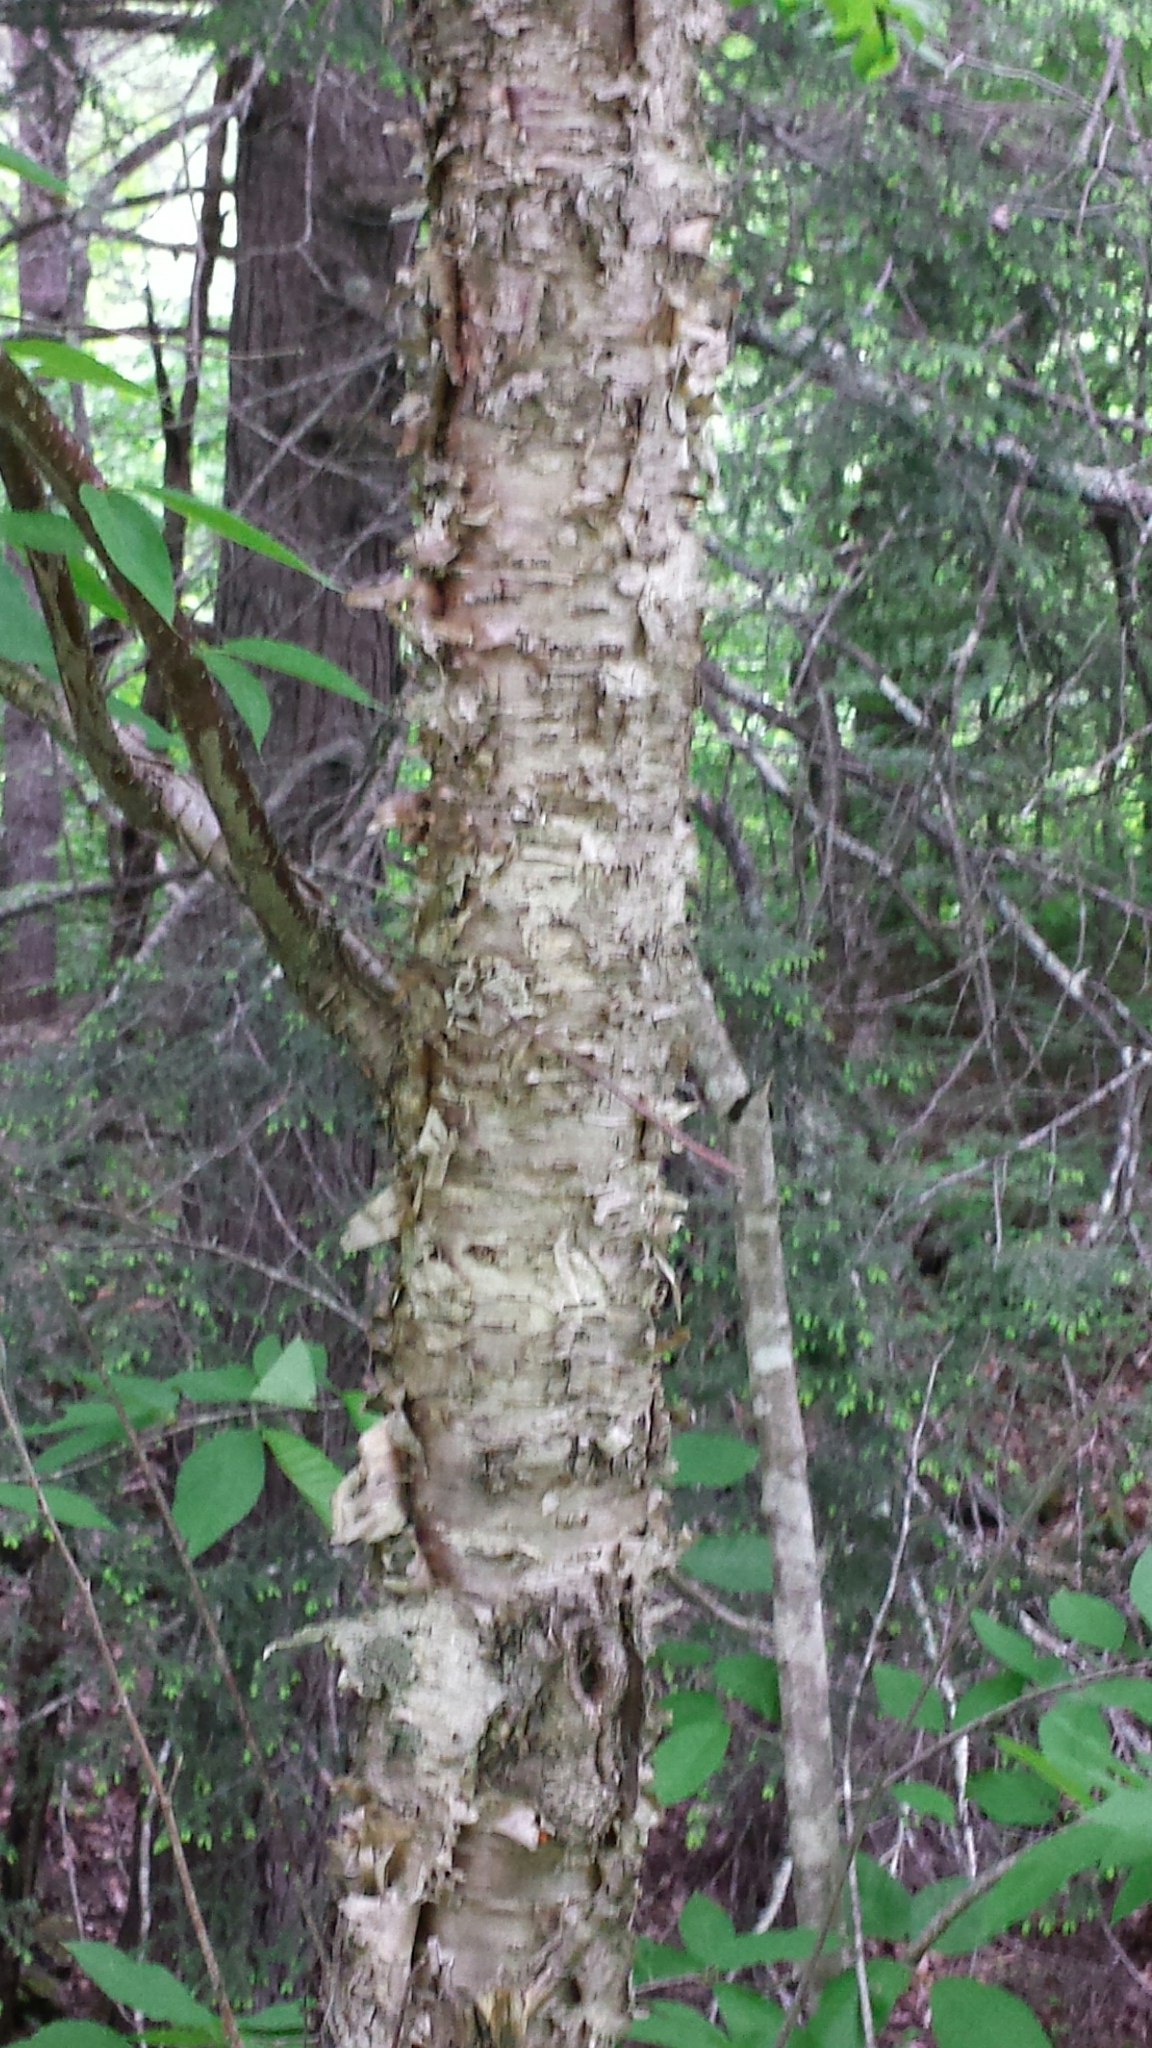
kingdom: Plantae
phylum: Tracheophyta
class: Magnoliopsida
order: Fagales
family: Betulaceae
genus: Betula
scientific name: Betula alleghaniensis
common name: Yellow birch
